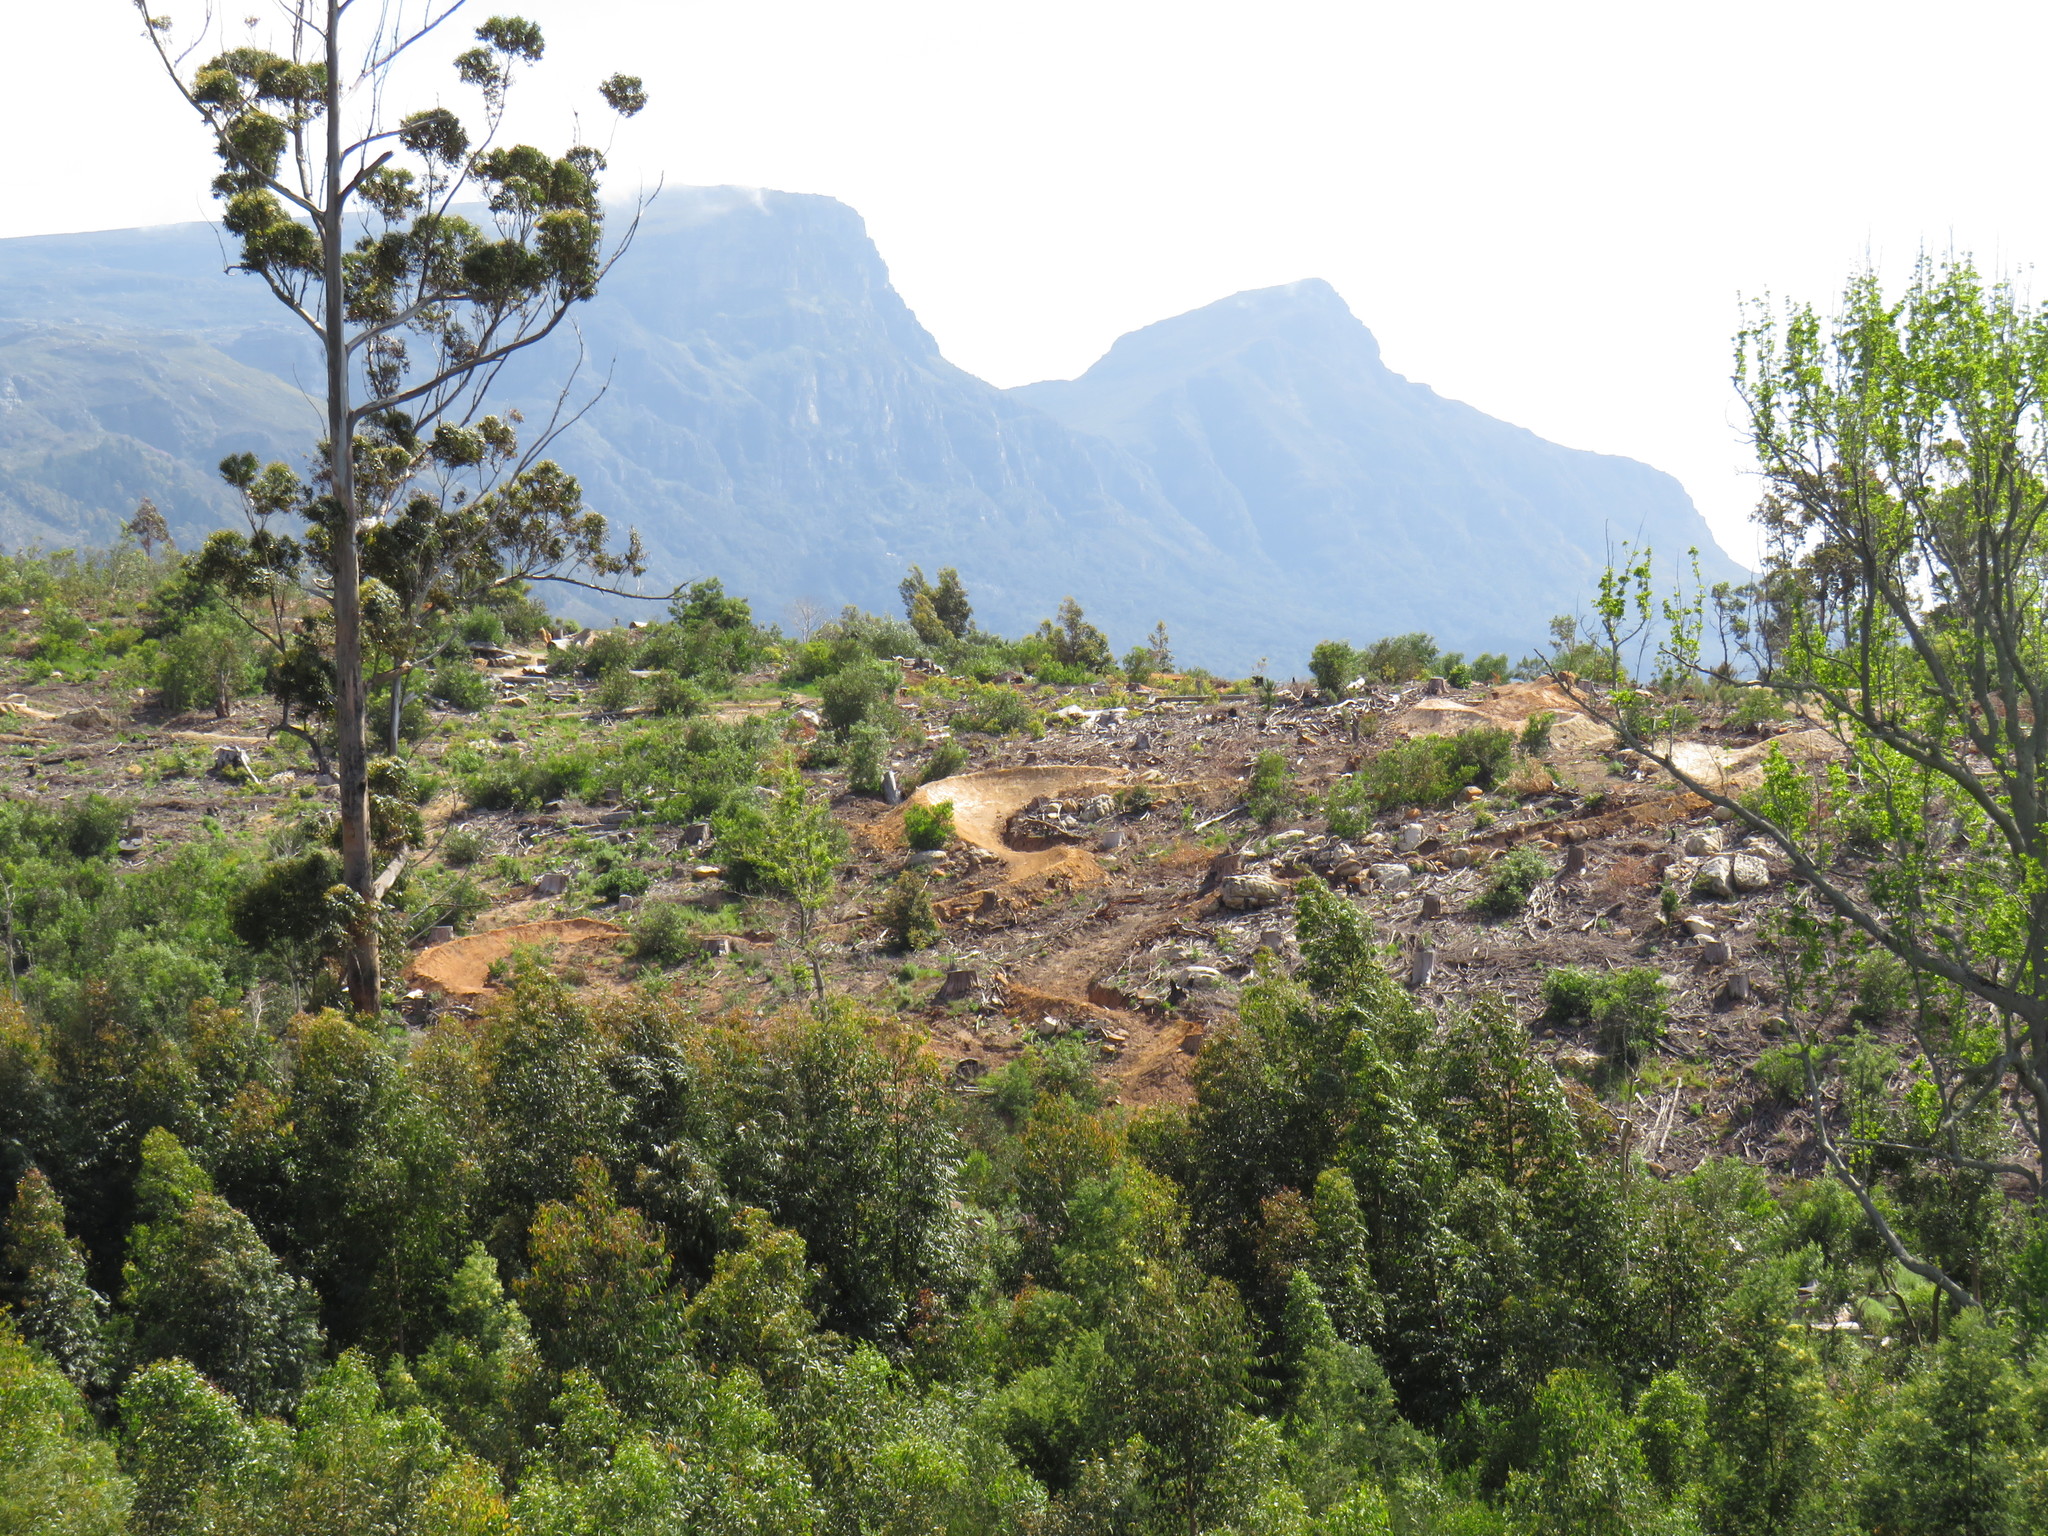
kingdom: Plantae
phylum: Tracheophyta
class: Magnoliopsida
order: Myrtales
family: Myrtaceae
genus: Eucalyptus
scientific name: Eucalyptus diversicolor
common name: Karri
